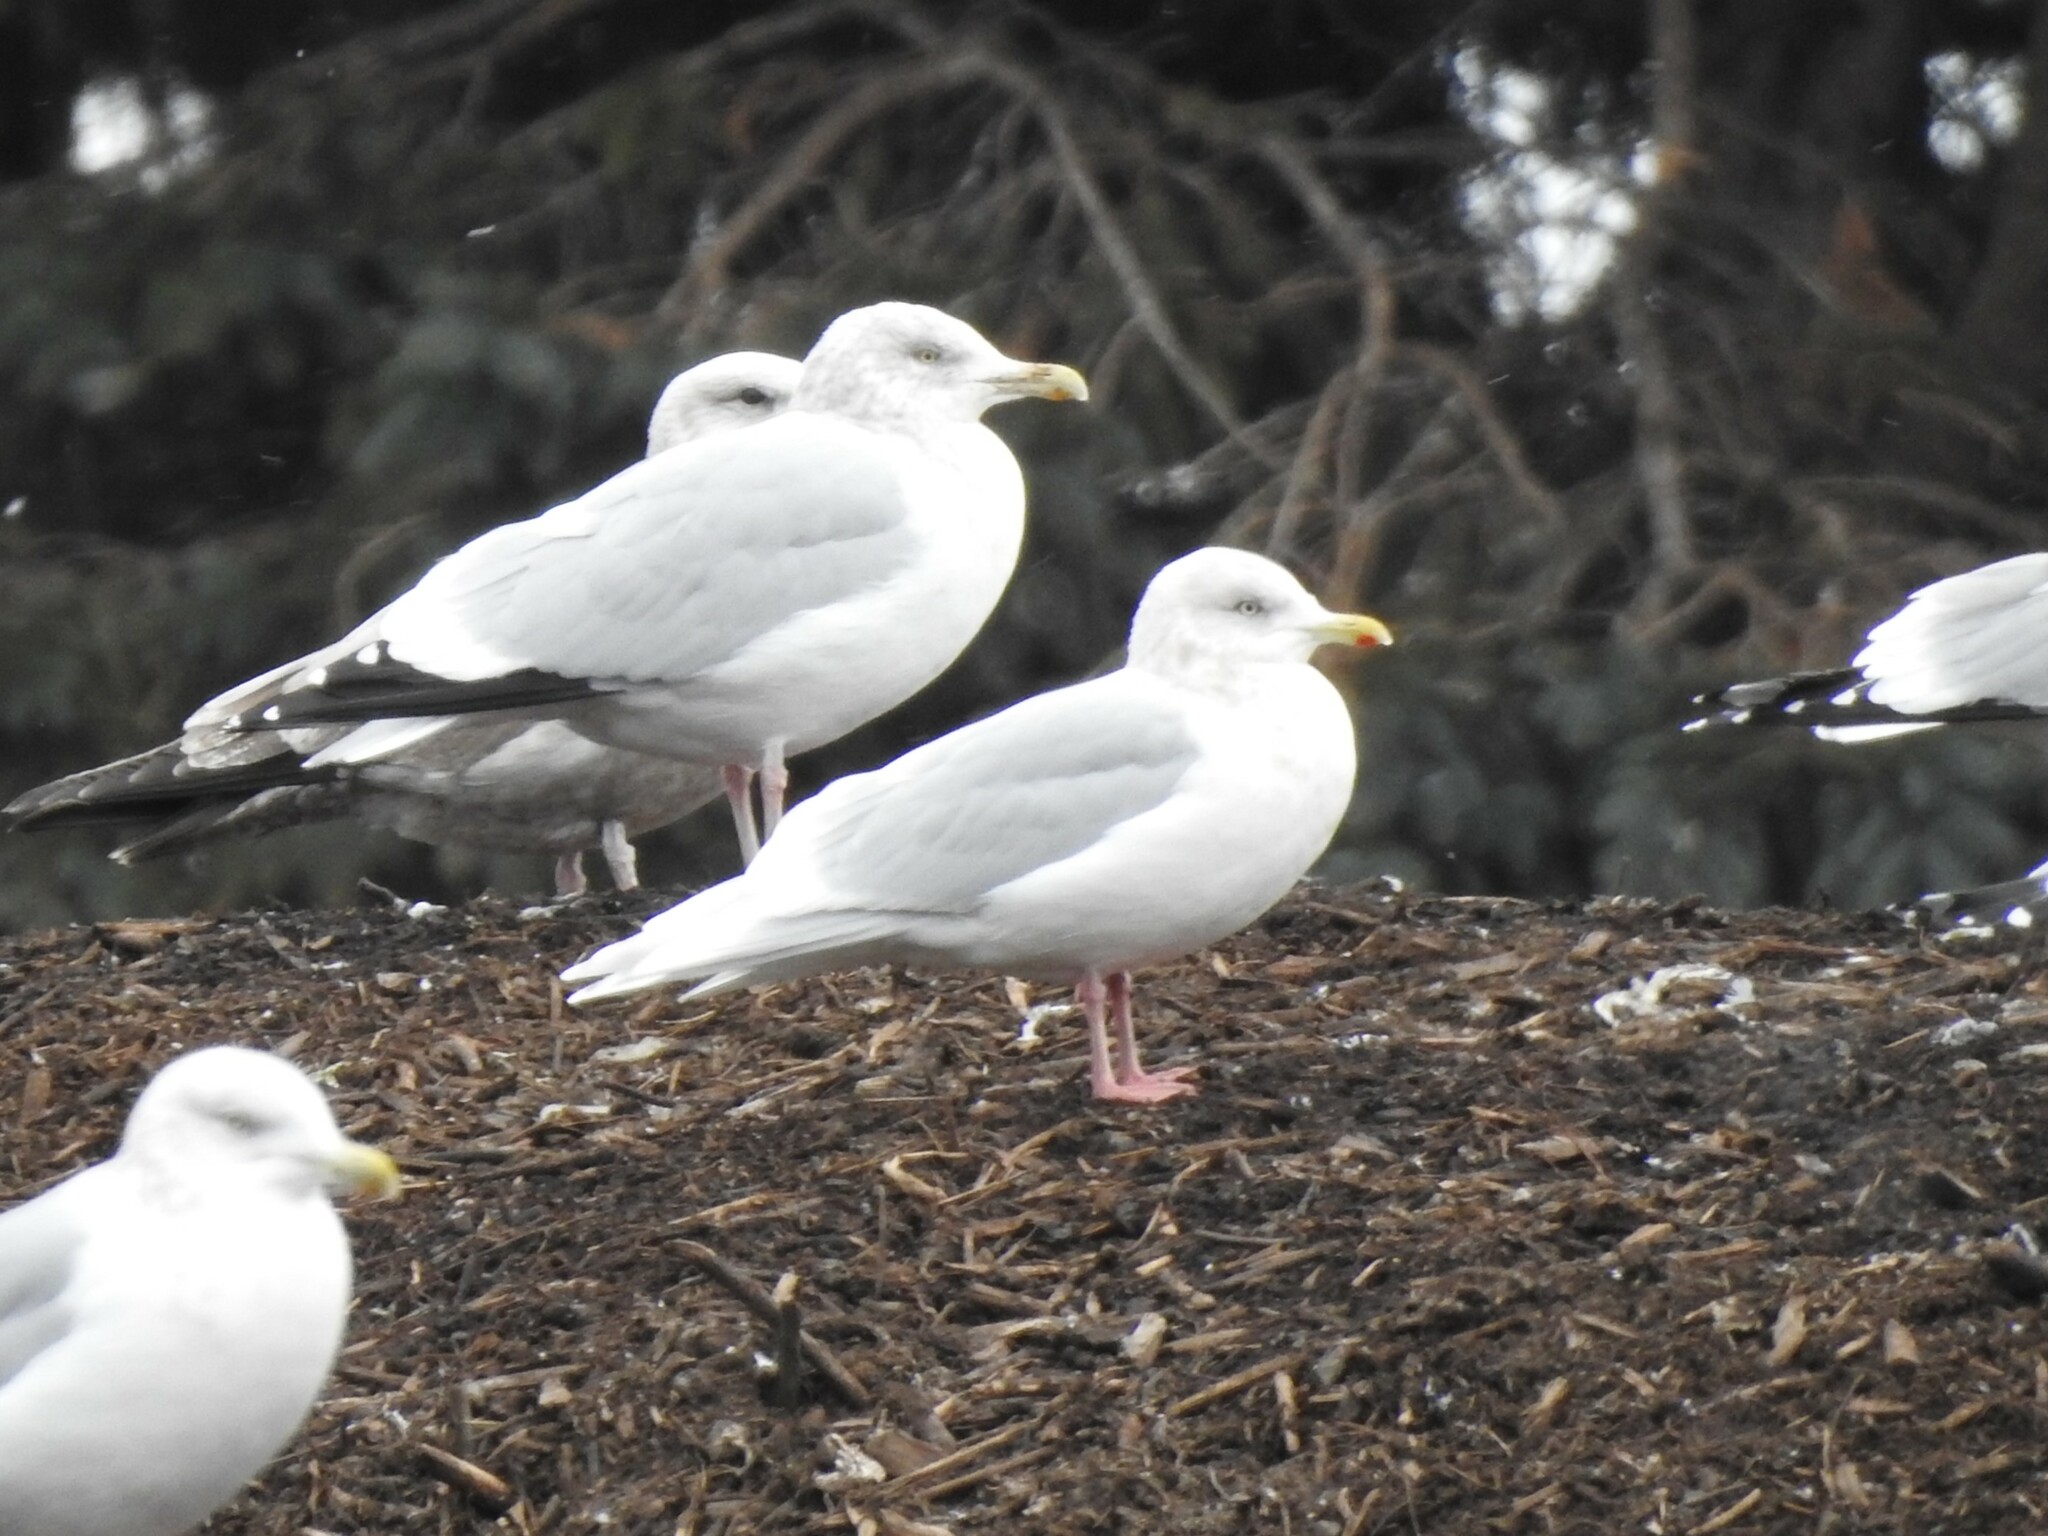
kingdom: Animalia
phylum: Chordata
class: Aves
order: Charadriiformes
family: Laridae
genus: Larus
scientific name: Larus glaucoides
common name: Iceland gull
